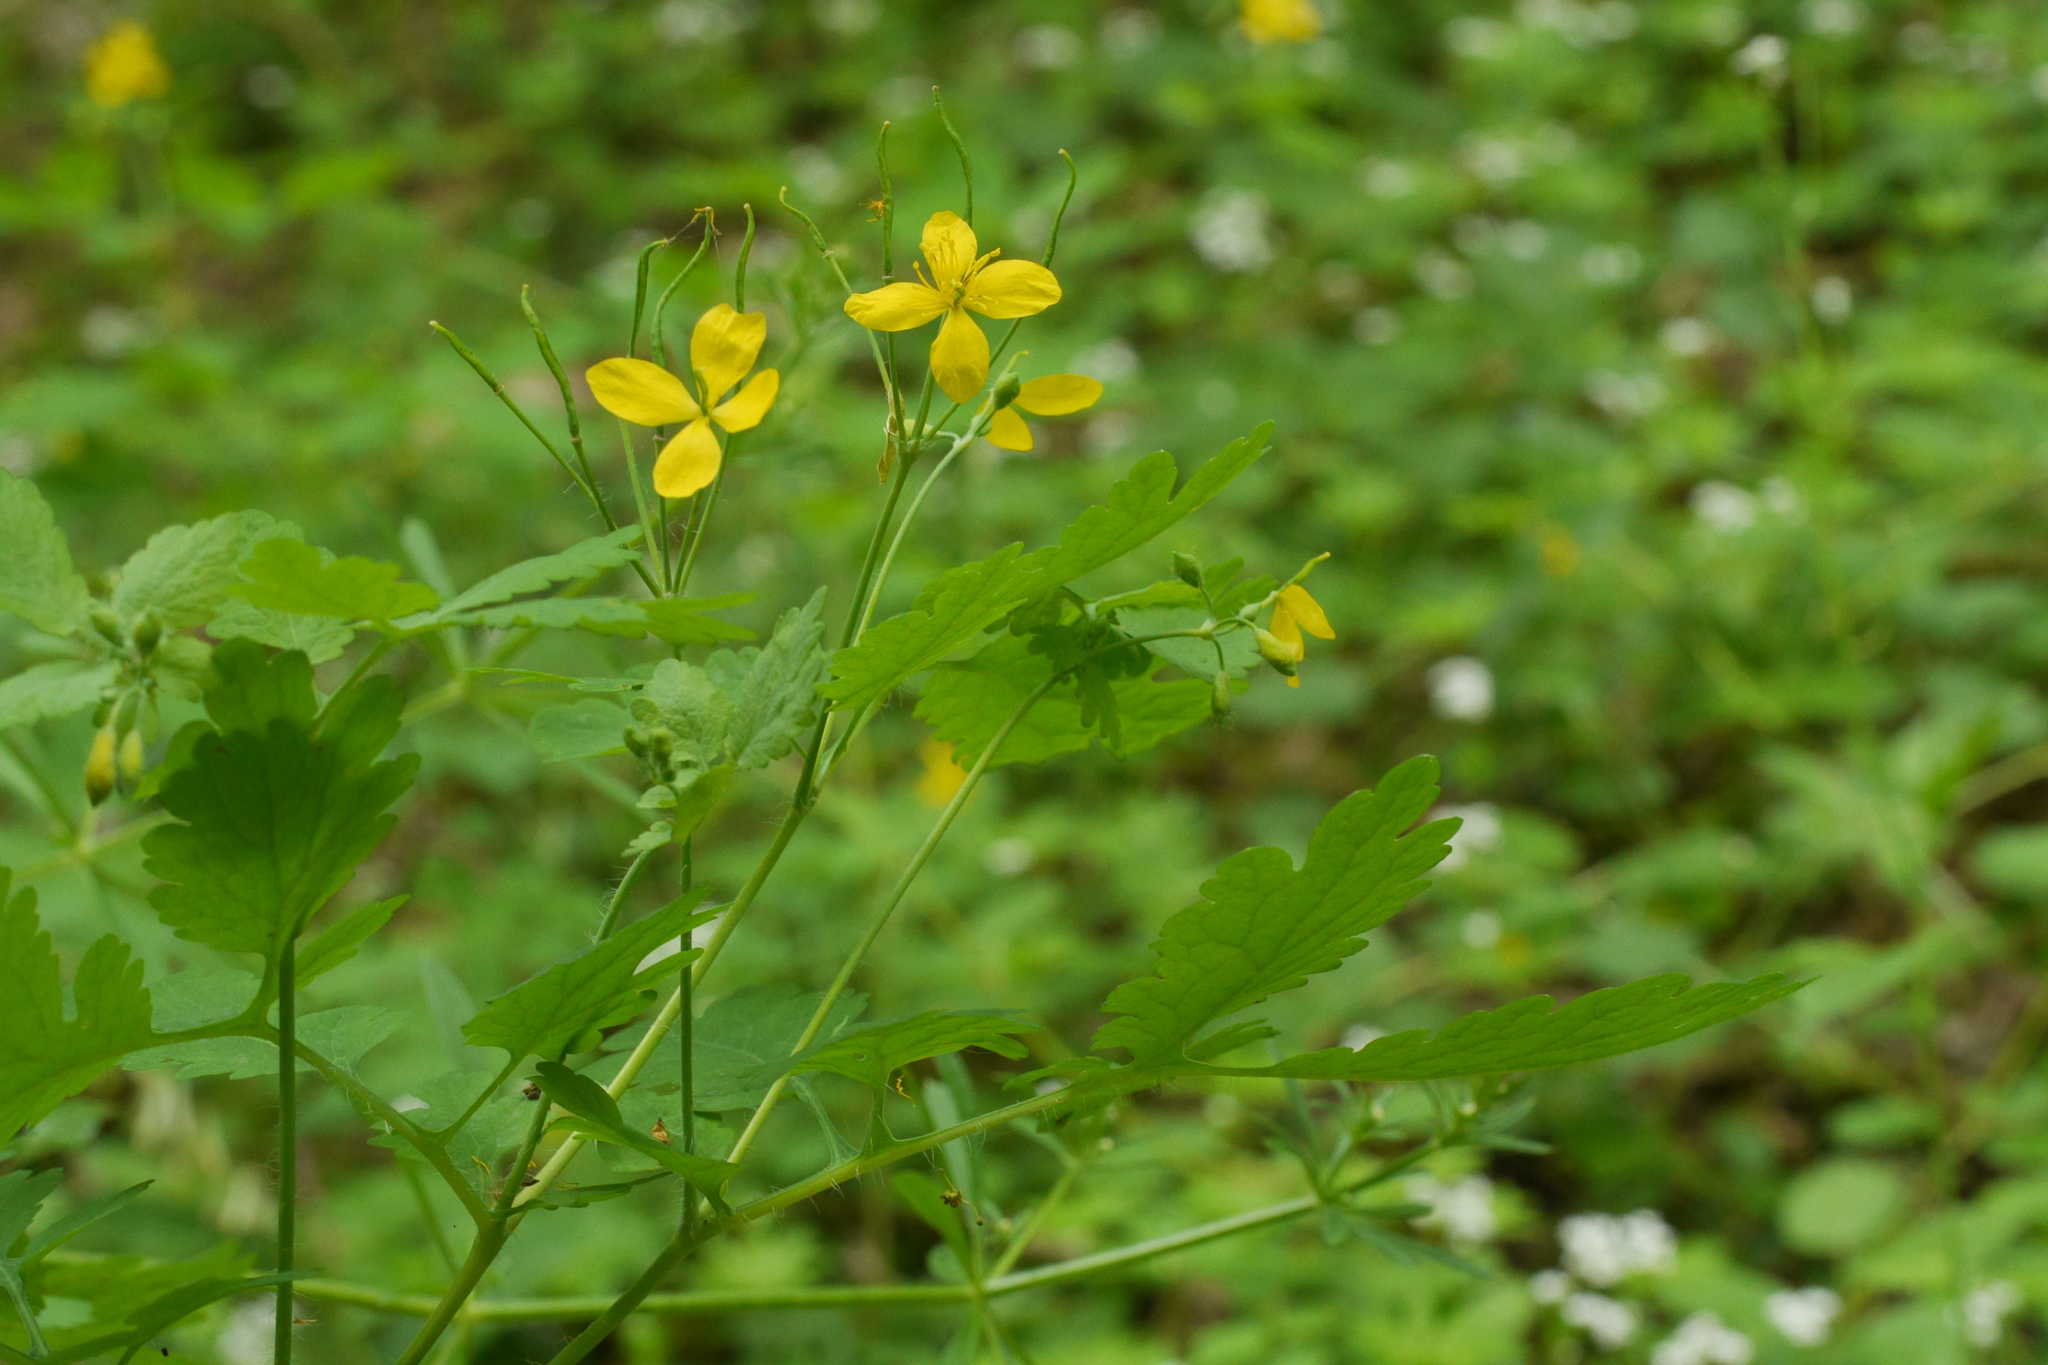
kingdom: Plantae
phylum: Tracheophyta
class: Magnoliopsida
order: Ranunculales
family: Papaveraceae
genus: Chelidonium
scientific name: Chelidonium majus
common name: Greater celandine
